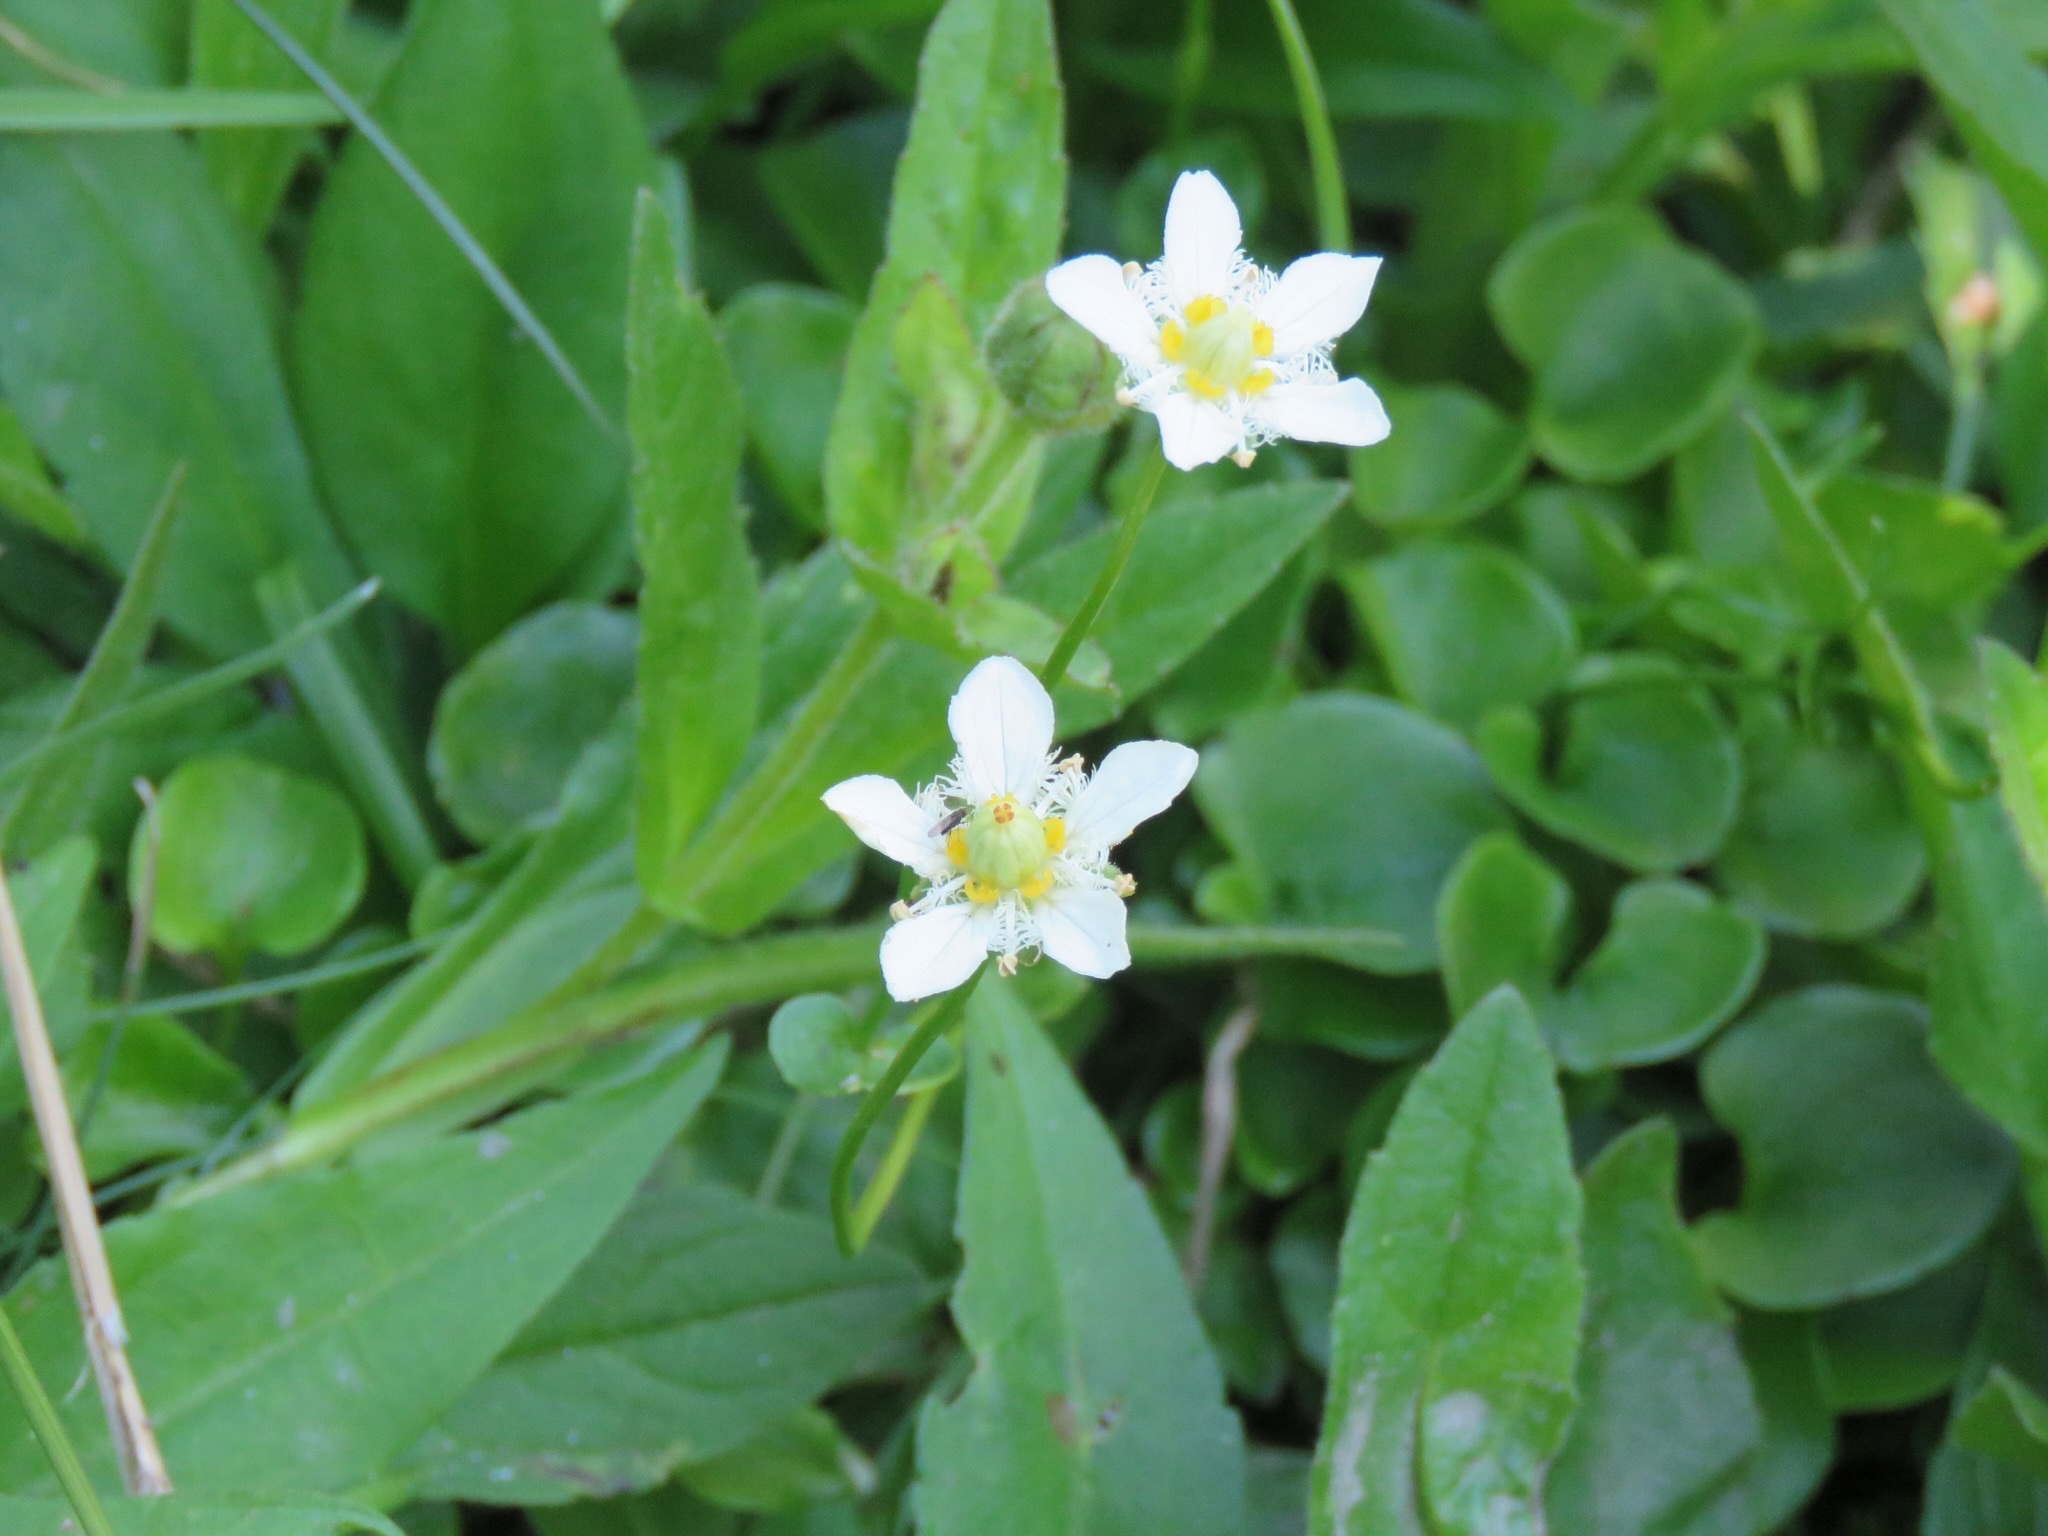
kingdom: Plantae
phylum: Tracheophyta
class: Magnoliopsida
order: Celastrales
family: Parnassiaceae
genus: Parnassia
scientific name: Parnassia fimbriata
